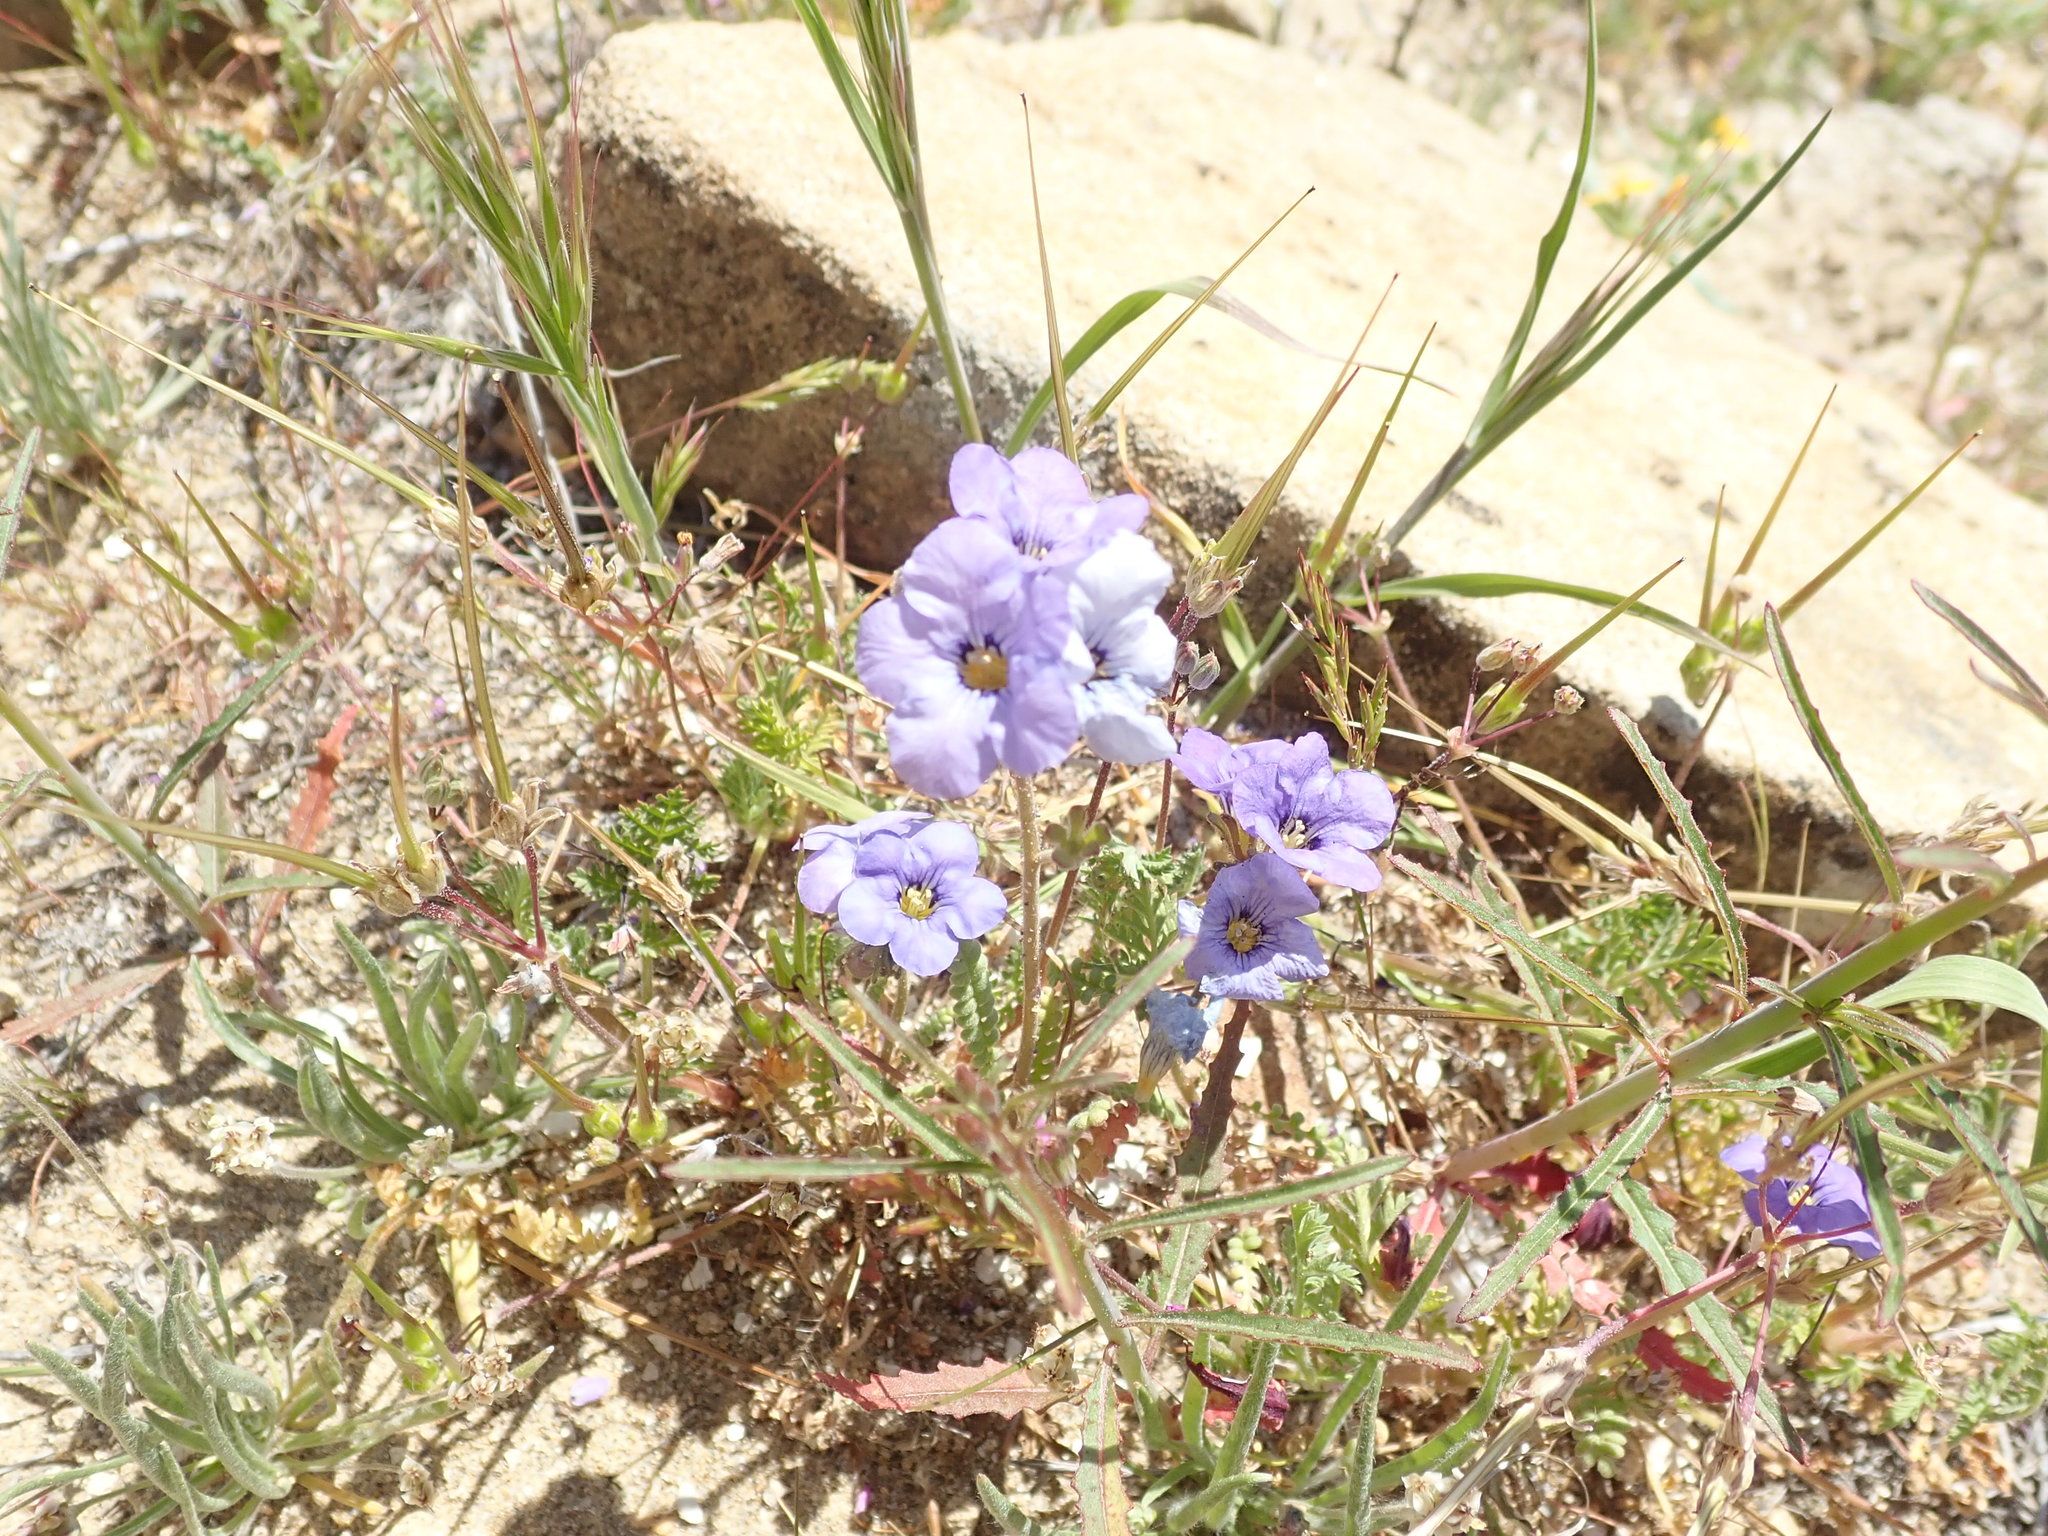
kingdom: Plantae
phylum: Tracheophyta
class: Magnoliopsida
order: Boraginales
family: Hydrophyllaceae
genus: Phacelia
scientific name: Phacelia fremontii
